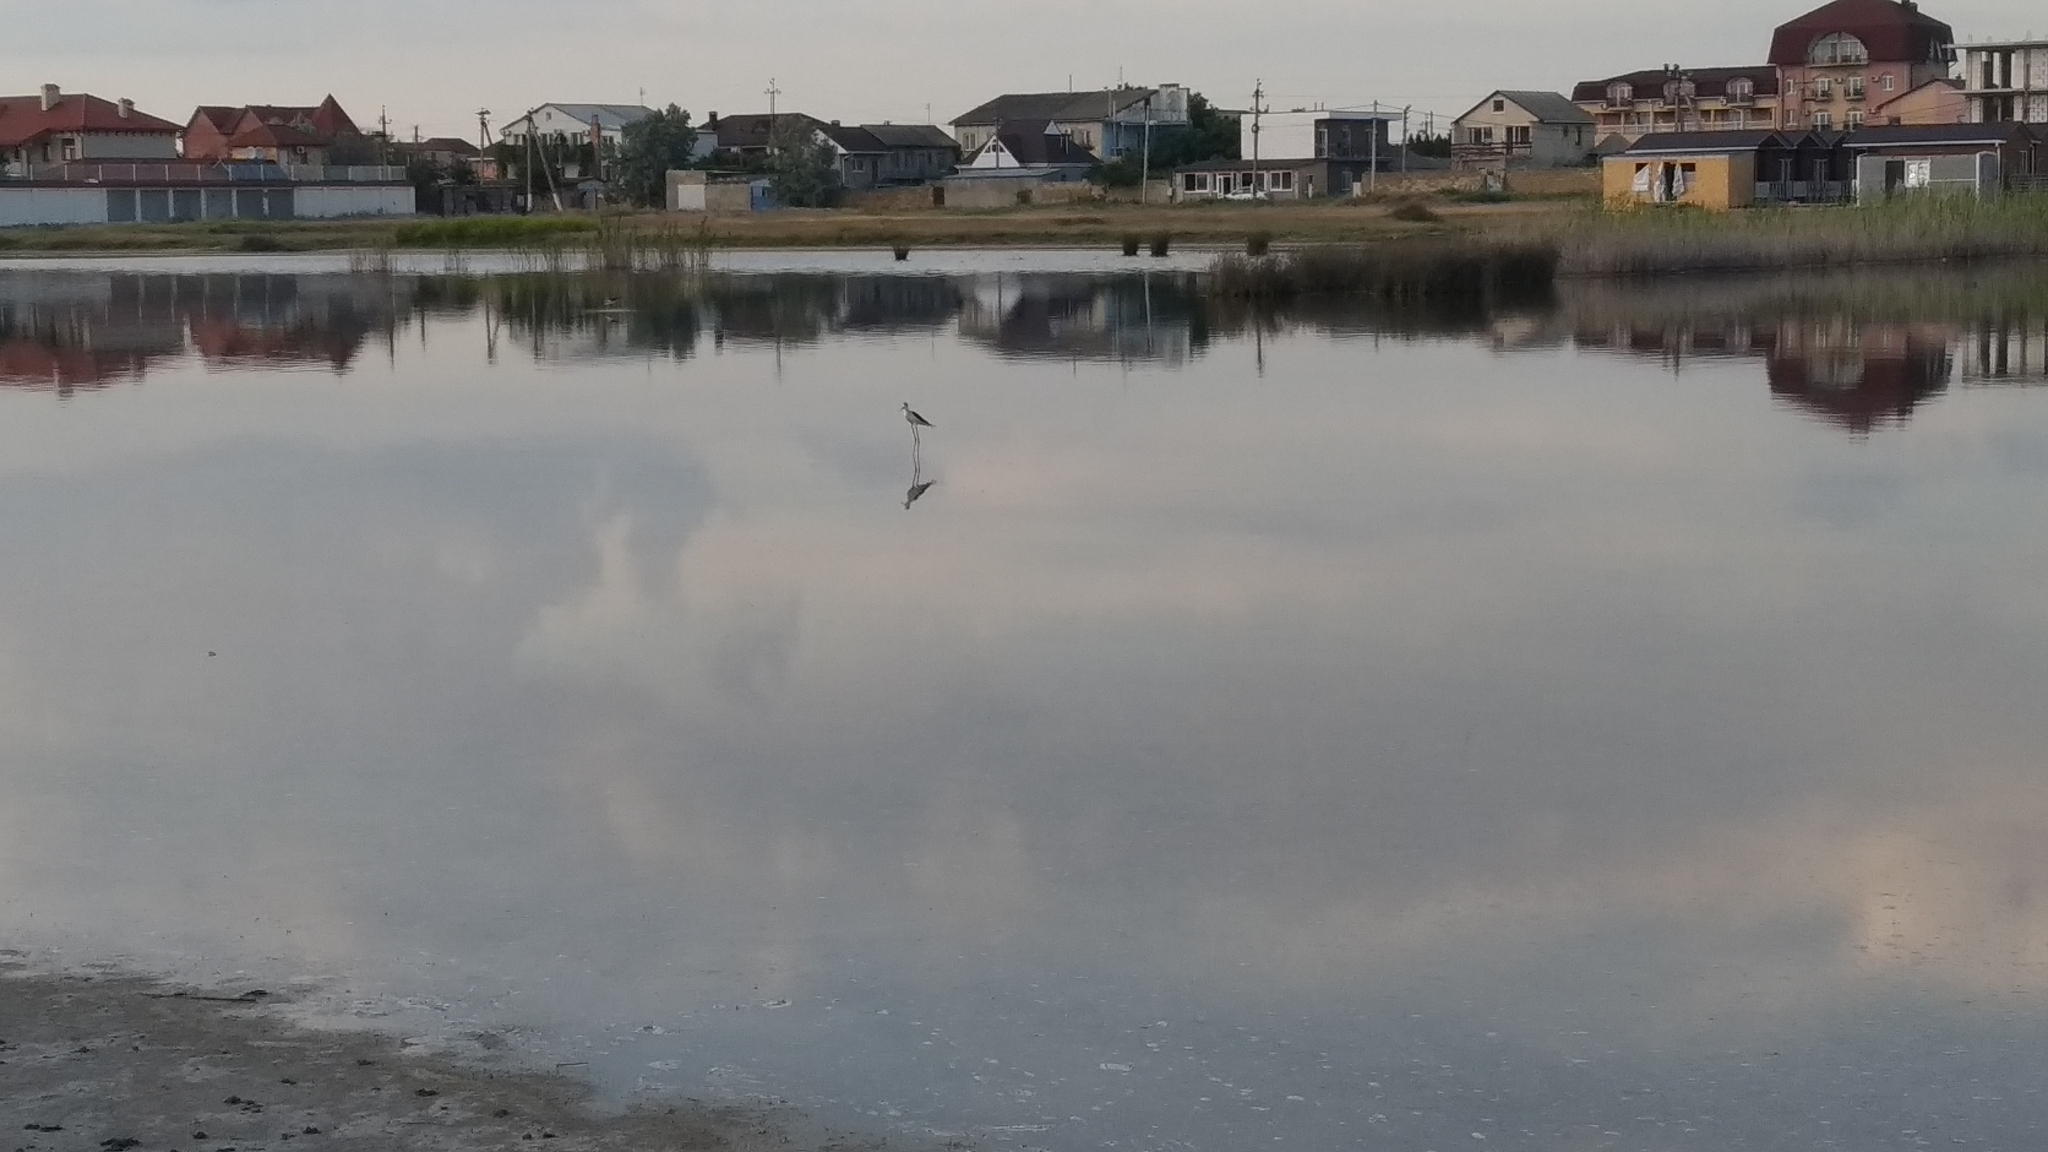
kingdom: Animalia
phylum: Chordata
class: Aves
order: Charadriiformes
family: Recurvirostridae
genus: Himantopus
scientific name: Himantopus himantopus
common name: Black-winged stilt
